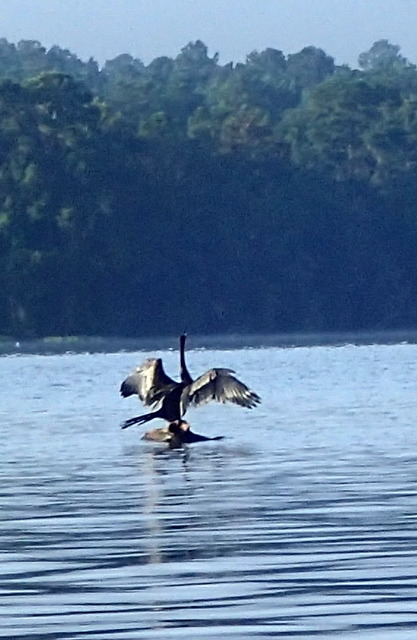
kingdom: Animalia
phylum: Chordata
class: Aves
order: Suliformes
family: Anhingidae
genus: Anhinga
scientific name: Anhinga anhinga
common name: Anhinga
